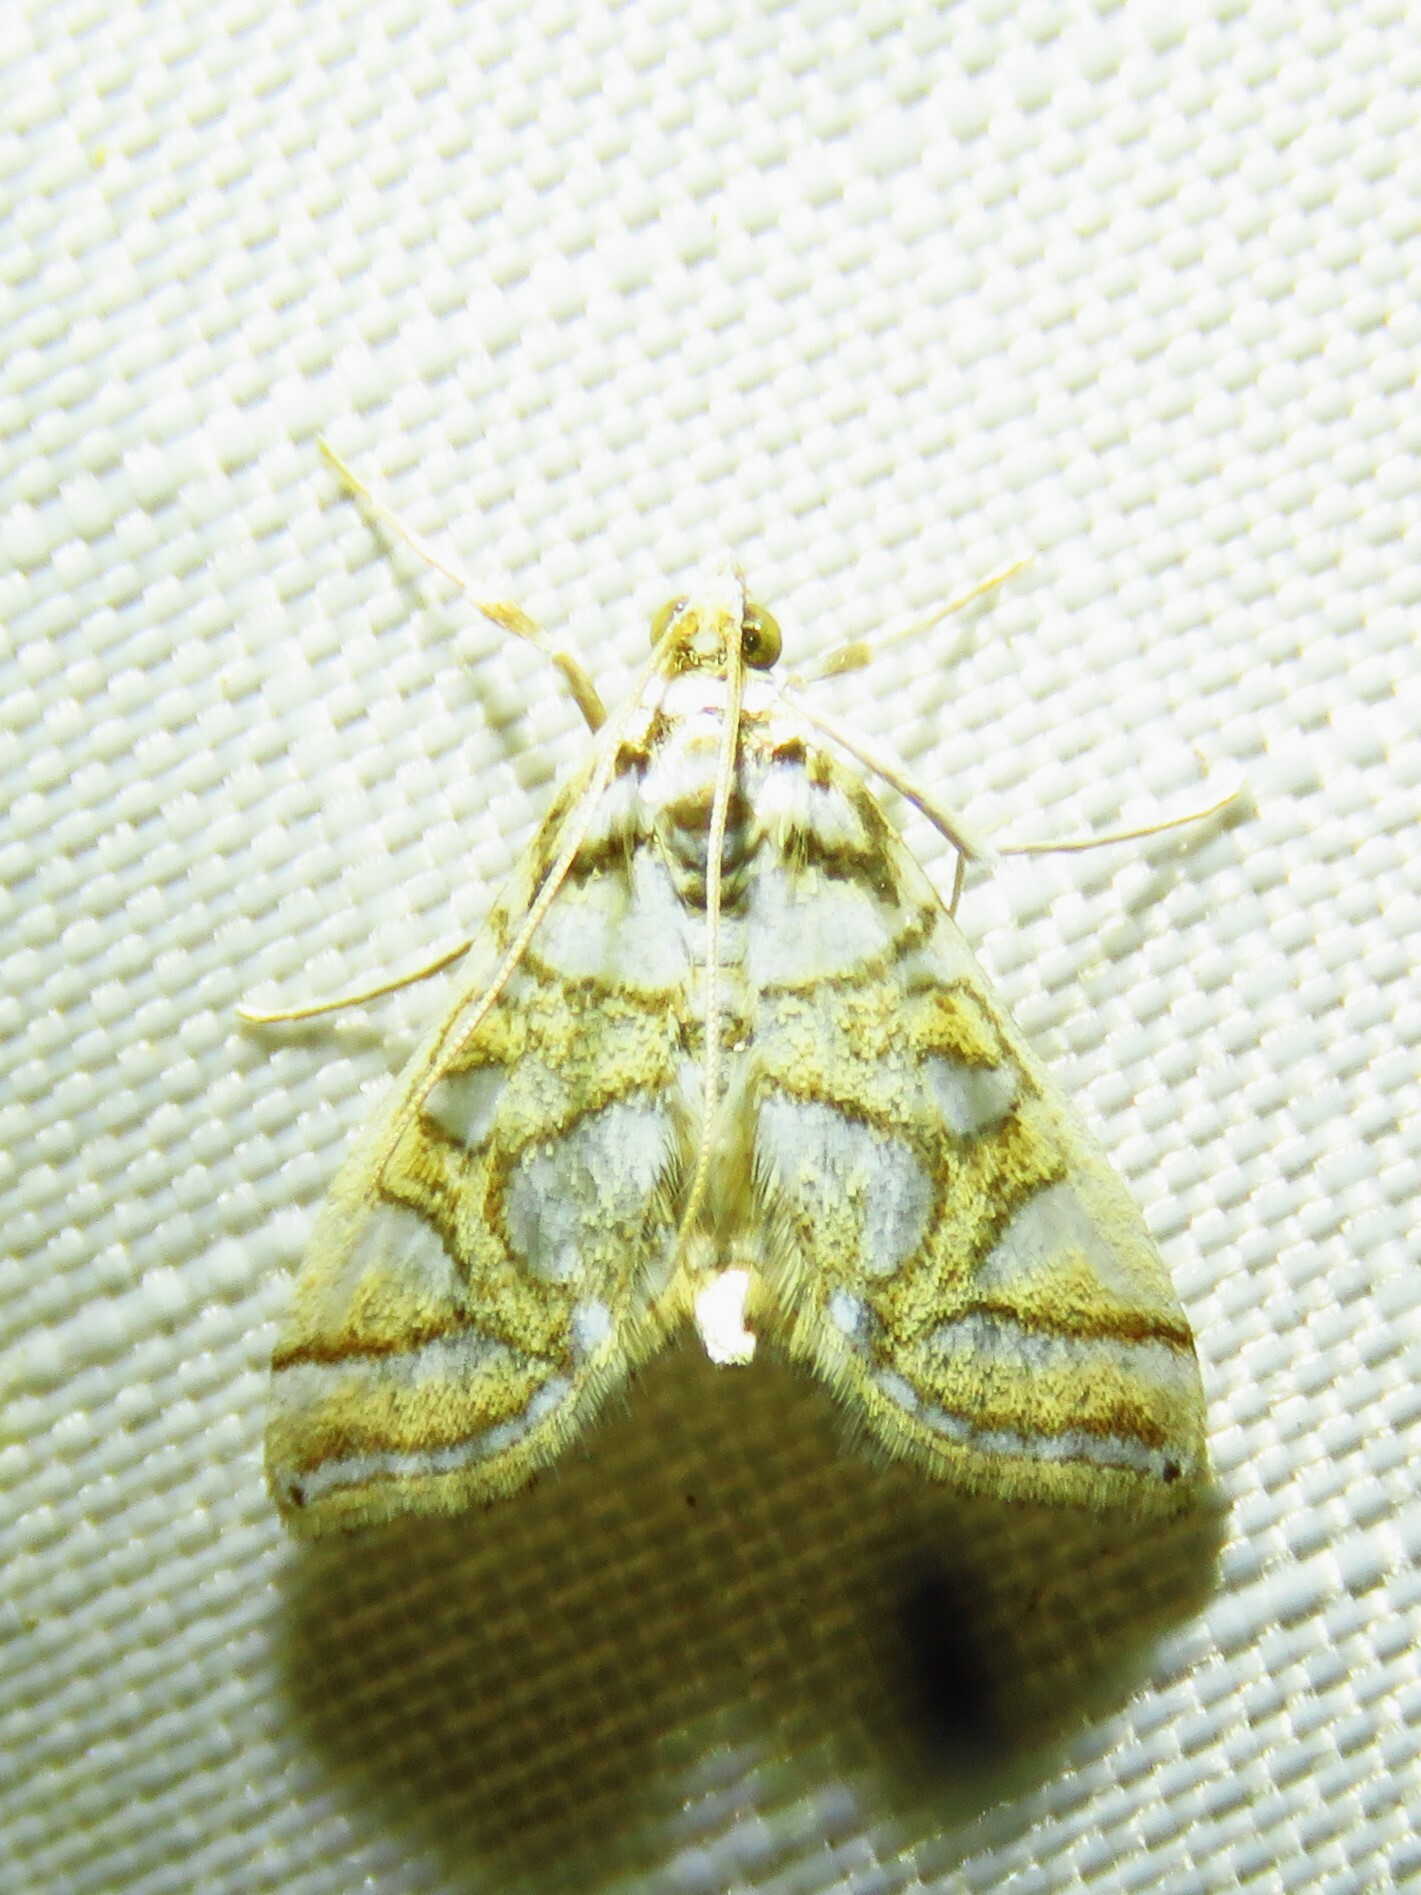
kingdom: Animalia
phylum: Arthropoda
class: Insecta
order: Lepidoptera
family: Crambidae
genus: Pseudopyrausta
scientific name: Pseudopyrausta santatalis
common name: Moth
